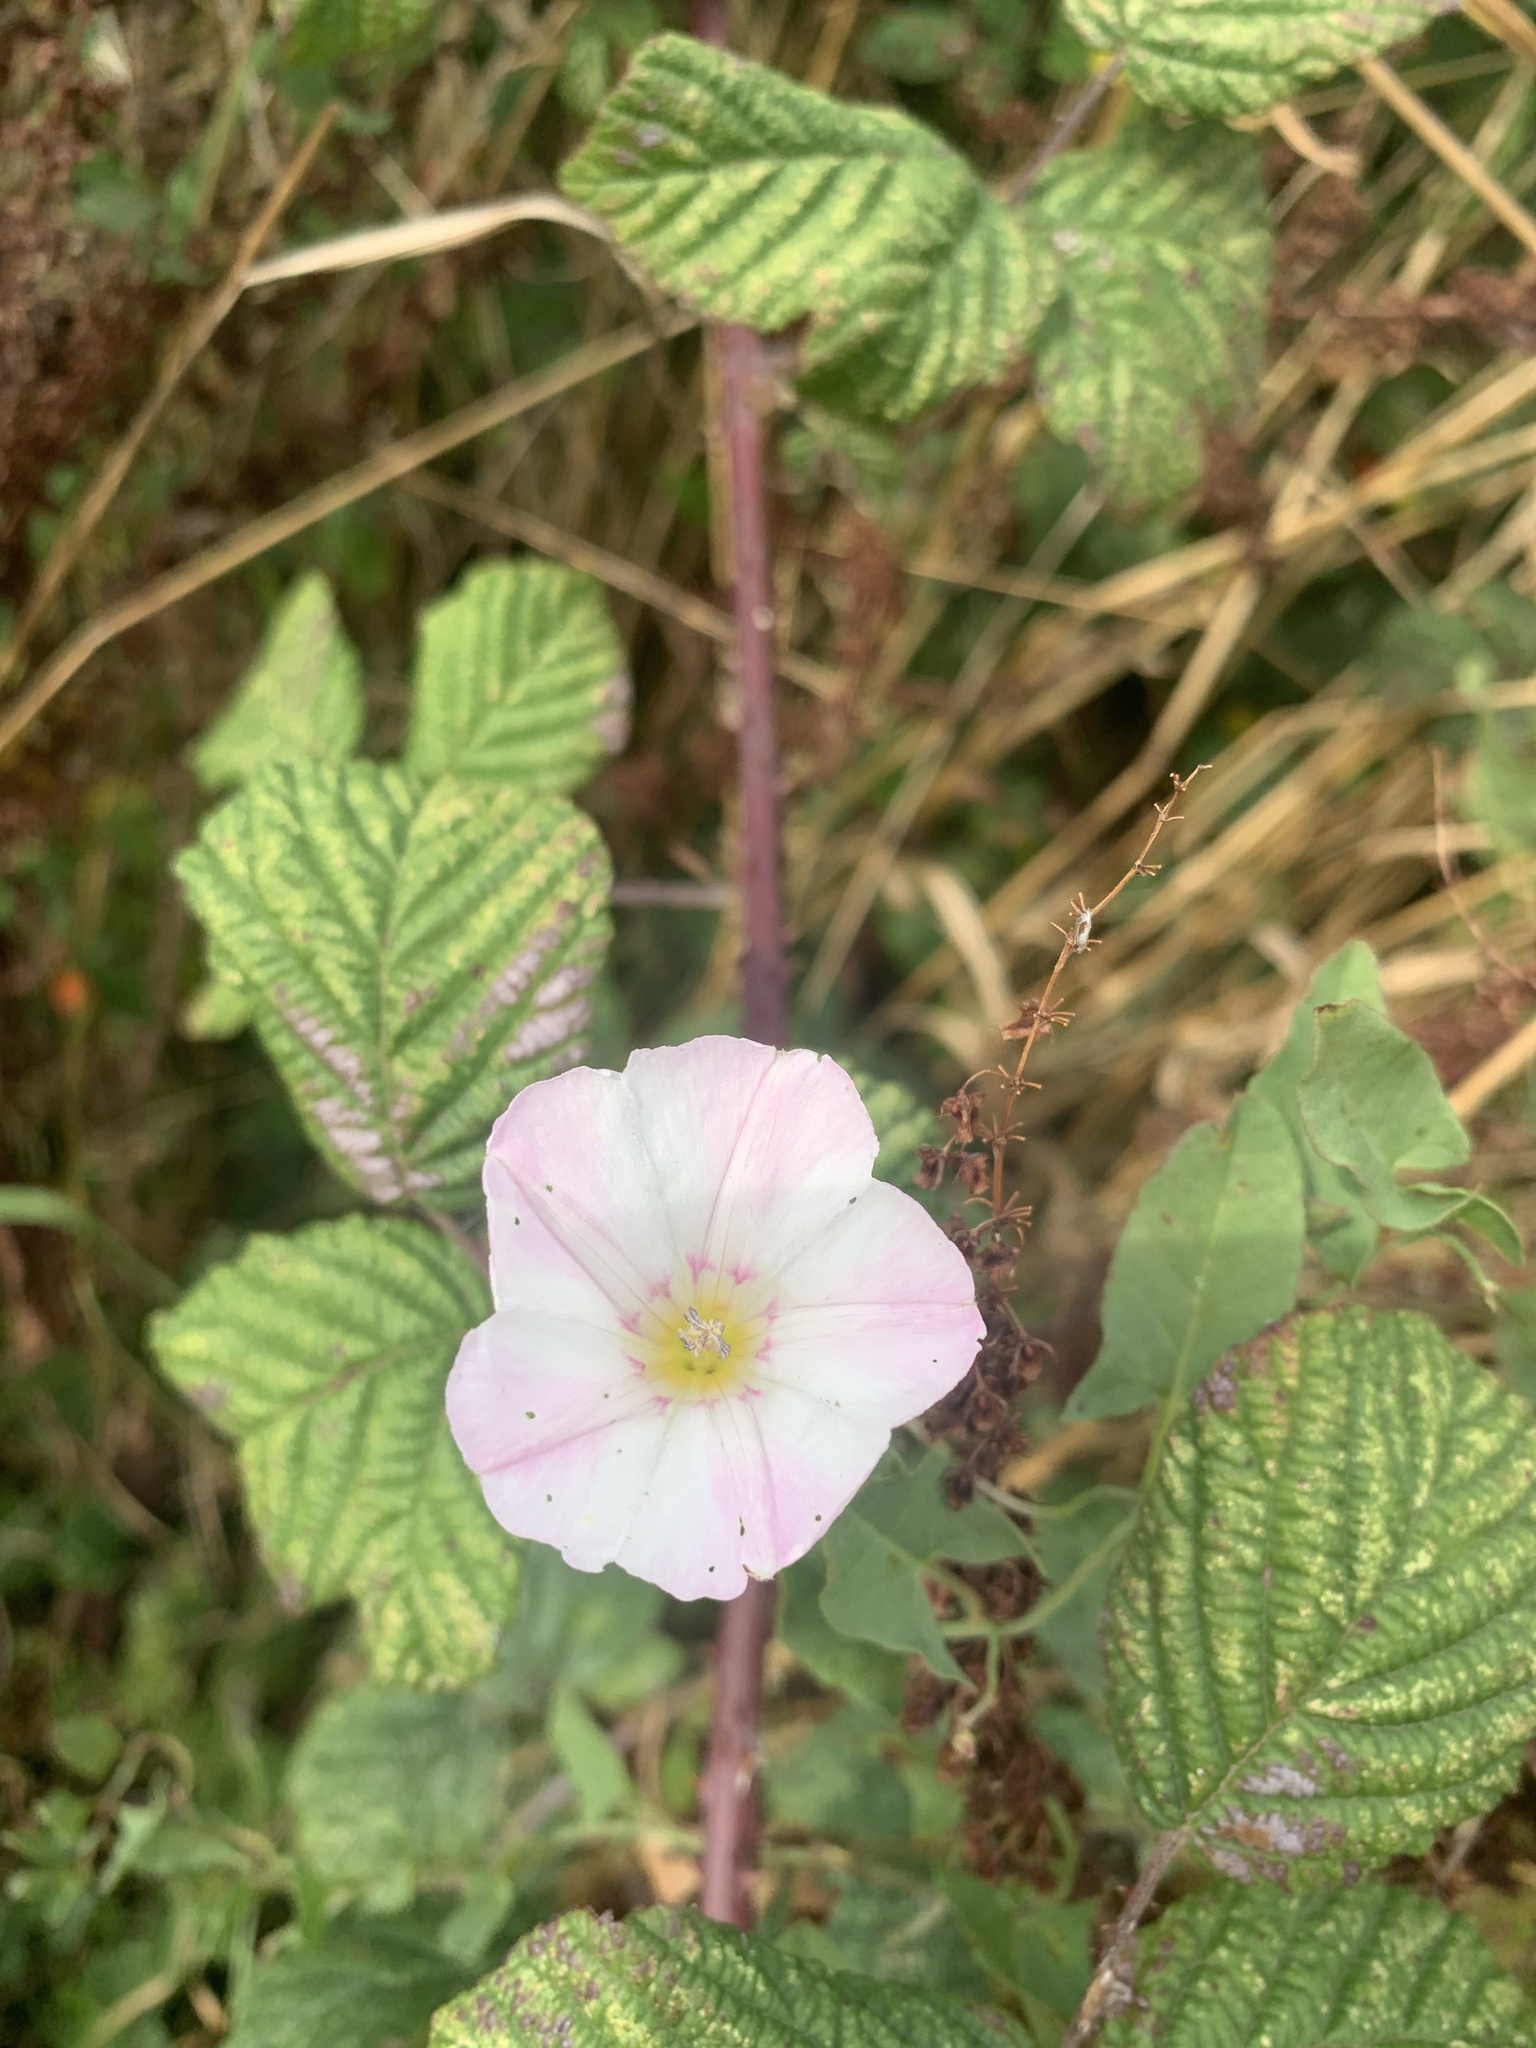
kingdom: Plantae
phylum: Tracheophyta
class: Magnoliopsida
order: Solanales
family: Convolvulaceae
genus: Convolvulus
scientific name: Convolvulus arvensis
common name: Field bindweed
